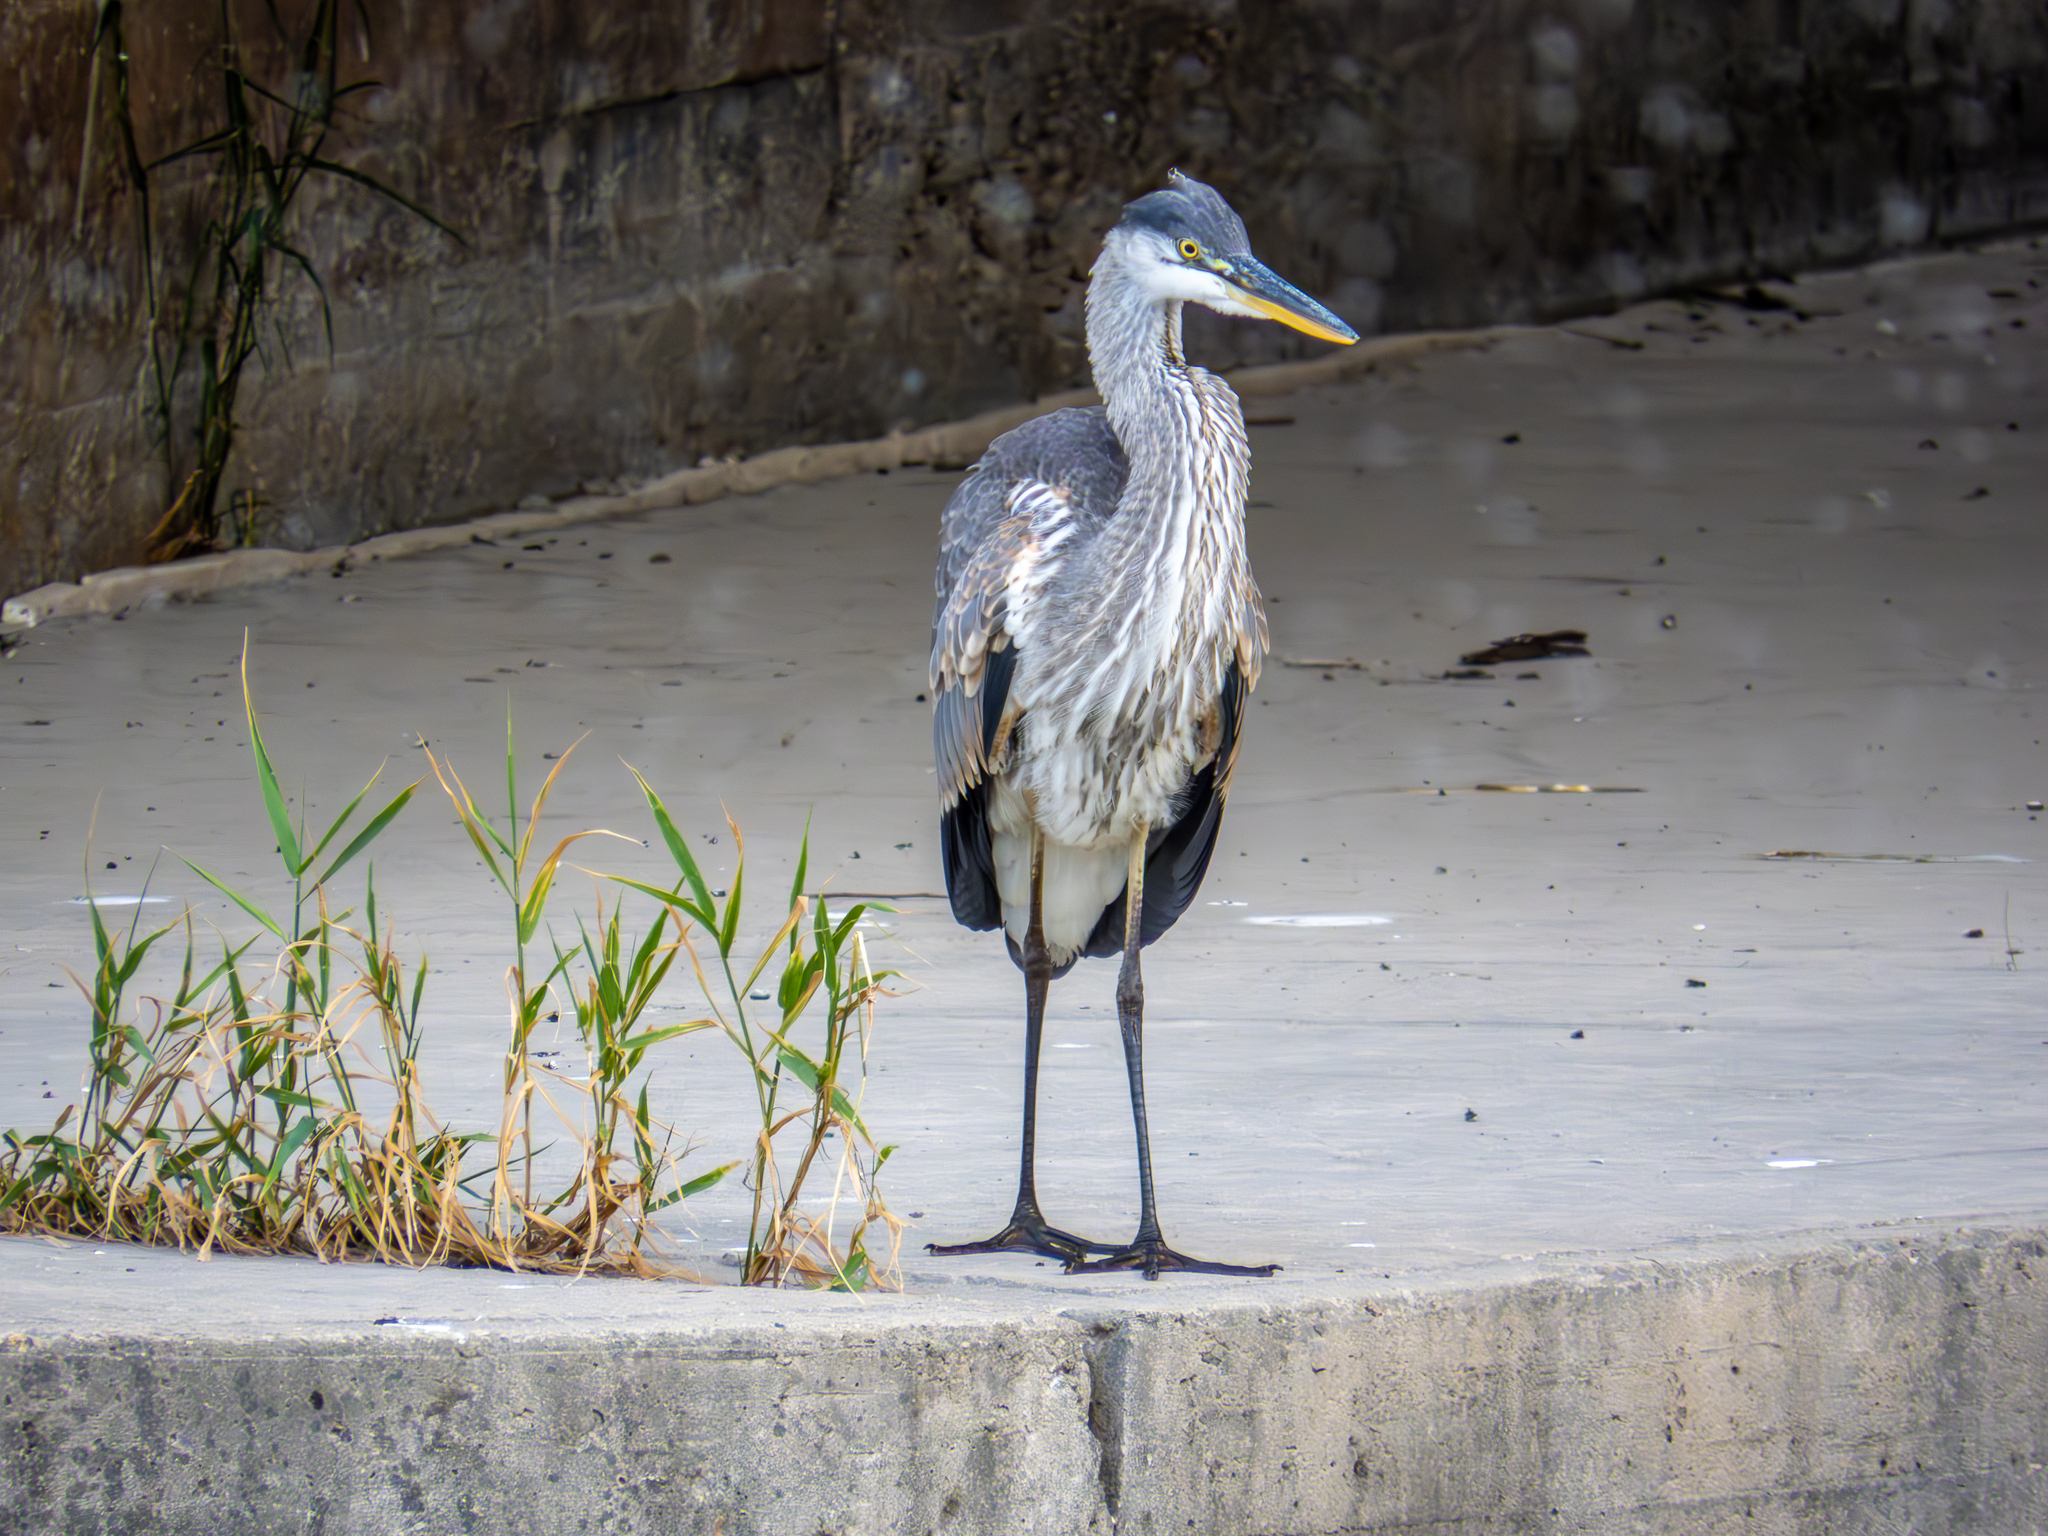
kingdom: Animalia
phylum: Chordata
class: Aves
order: Pelecaniformes
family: Ardeidae
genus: Ardea
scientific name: Ardea herodias
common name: Great blue heron
